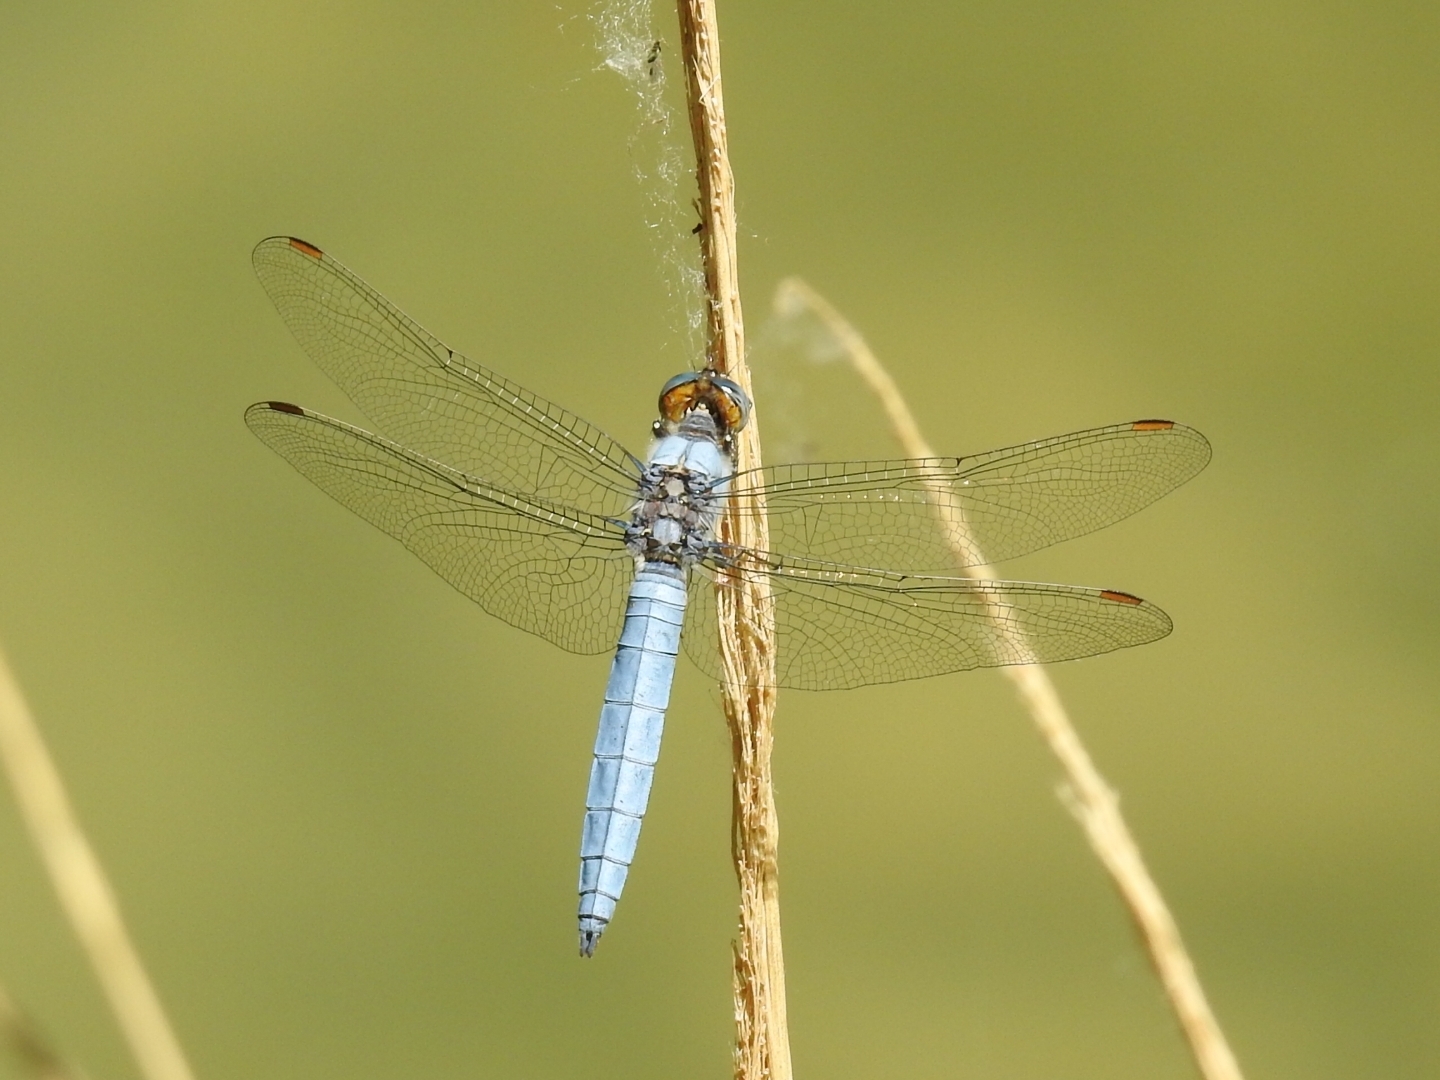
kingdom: Animalia
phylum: Arthropoda
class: Insecta
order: Odonata
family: Libellulidae
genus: Orthetrum
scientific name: Orthetrum brunneum
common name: Southern skimmer
